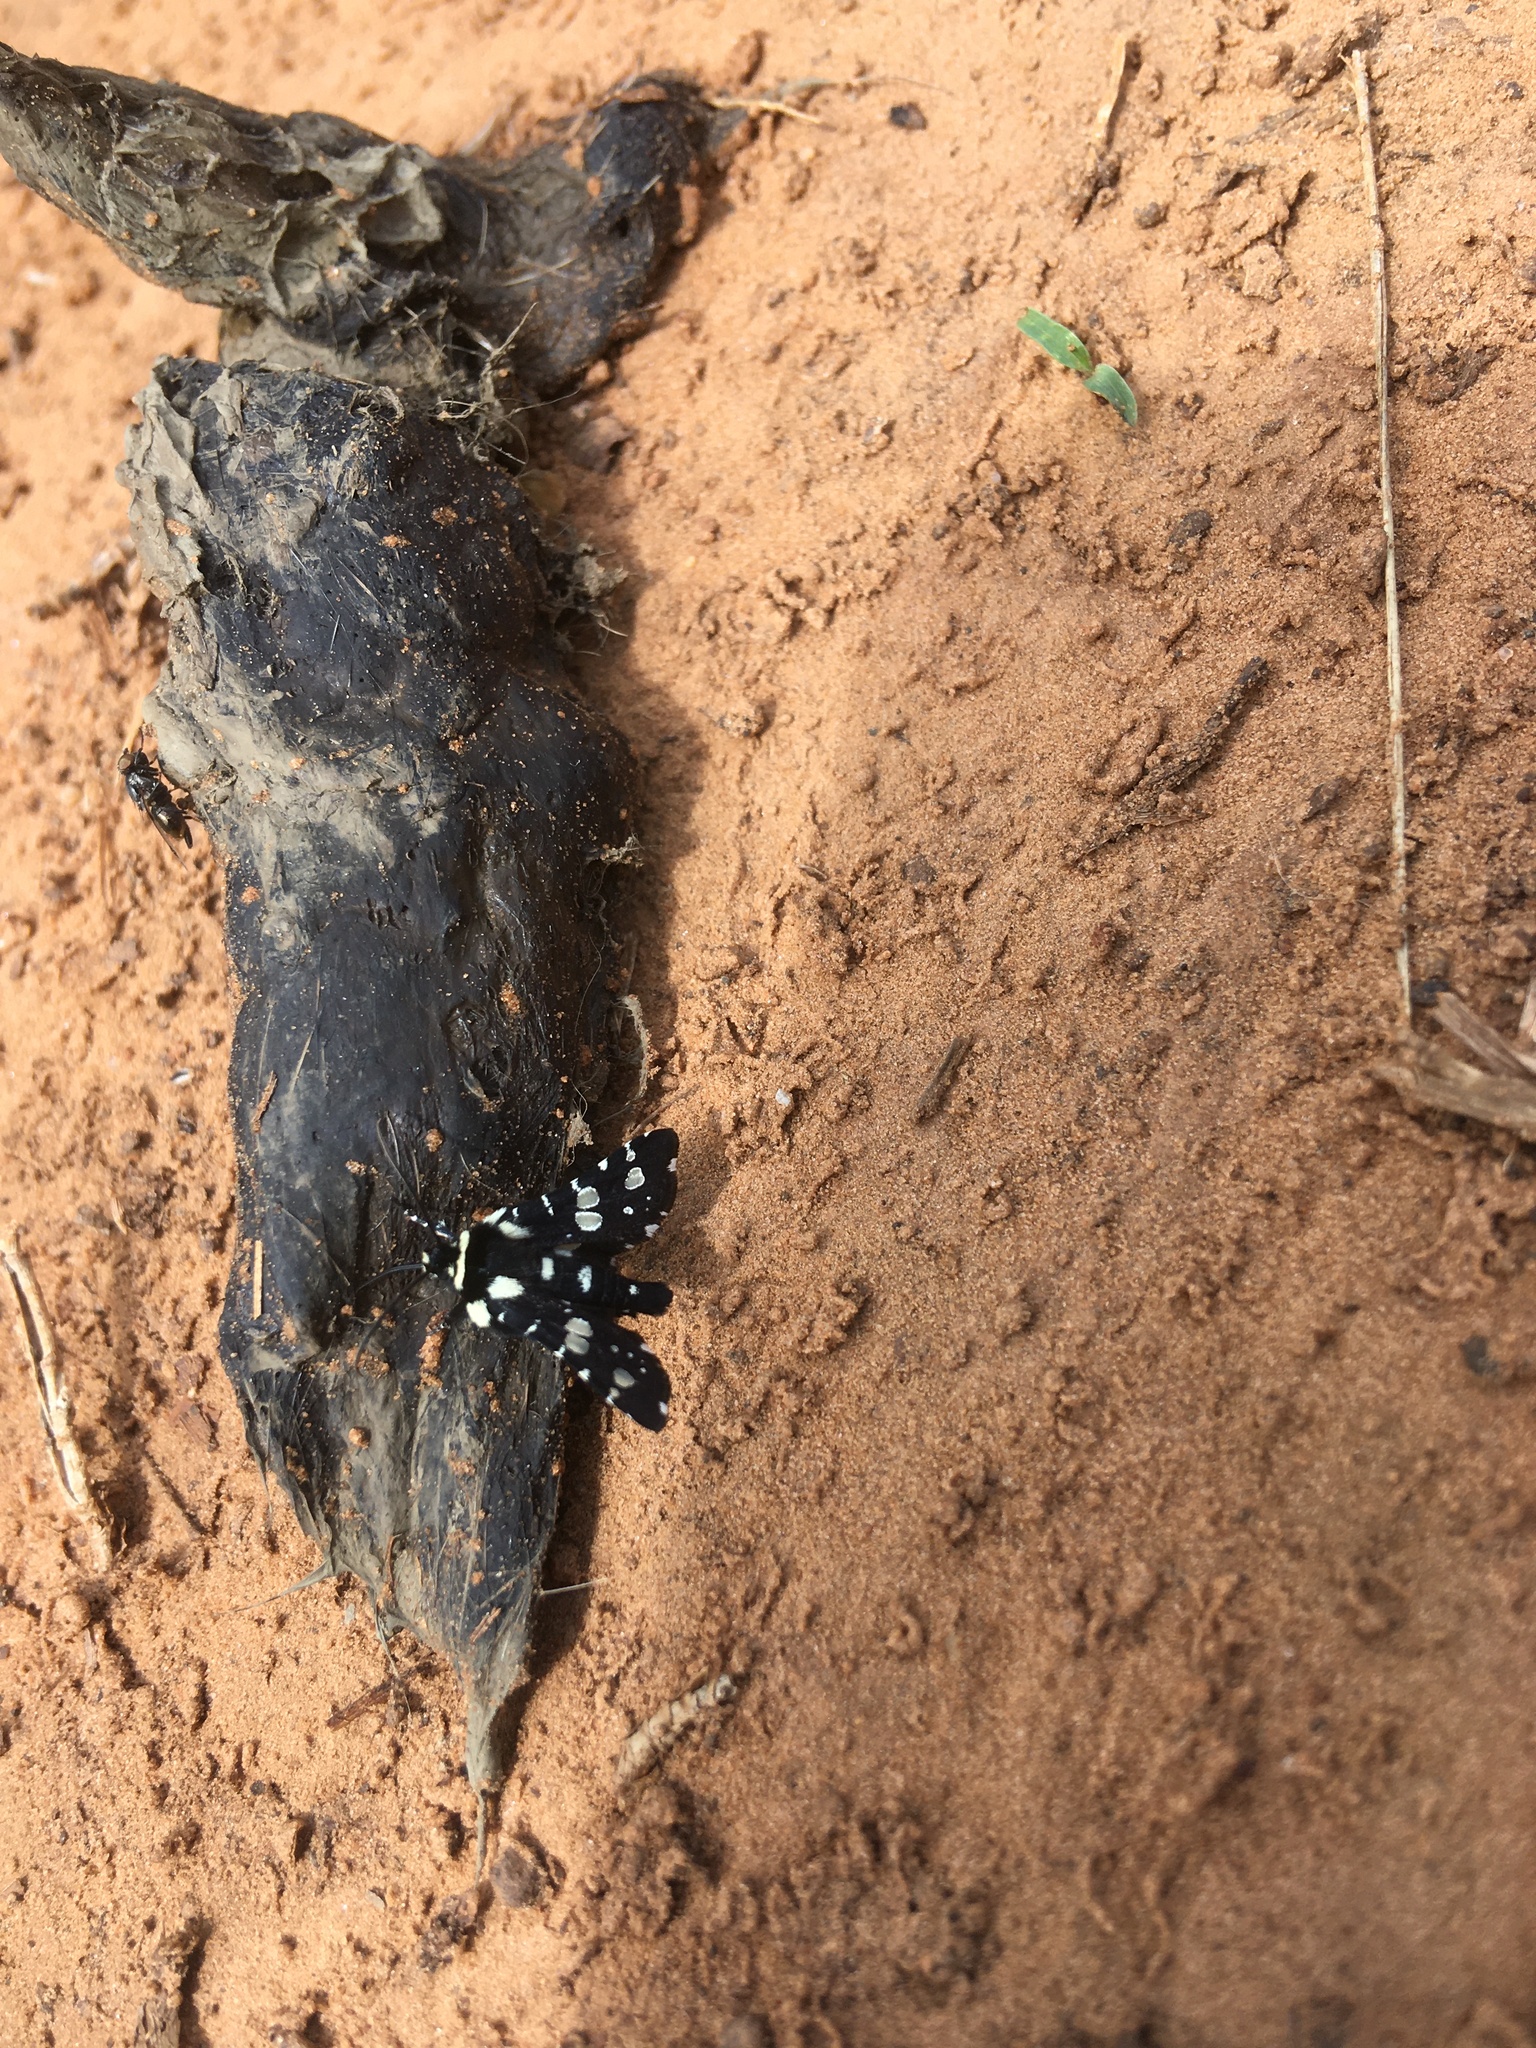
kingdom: Animalia
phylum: Arthropoda
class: Insecta
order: Lepidoptera
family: Thyrididae
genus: Pseudothyris
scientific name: Pseudothyris sepulchralis
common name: Mournful thyris moth
